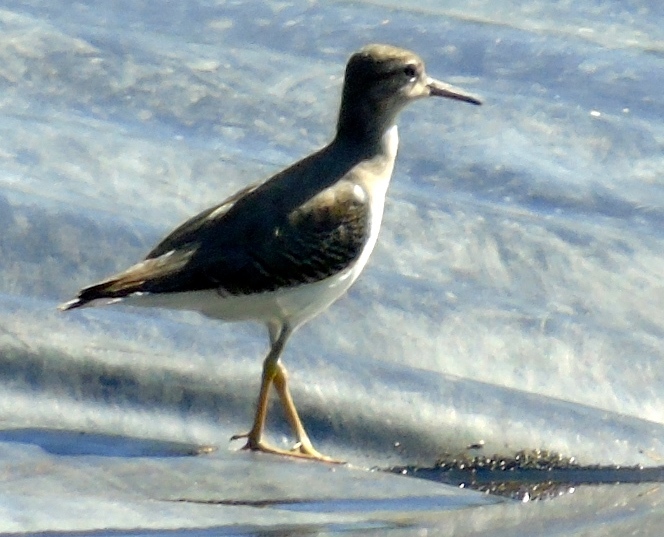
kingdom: Animalia
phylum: Chordata
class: Aves
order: Charadriiformes
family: Scolopacidae
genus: Actitis
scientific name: Actitis macularius
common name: Spotted sandpiper
